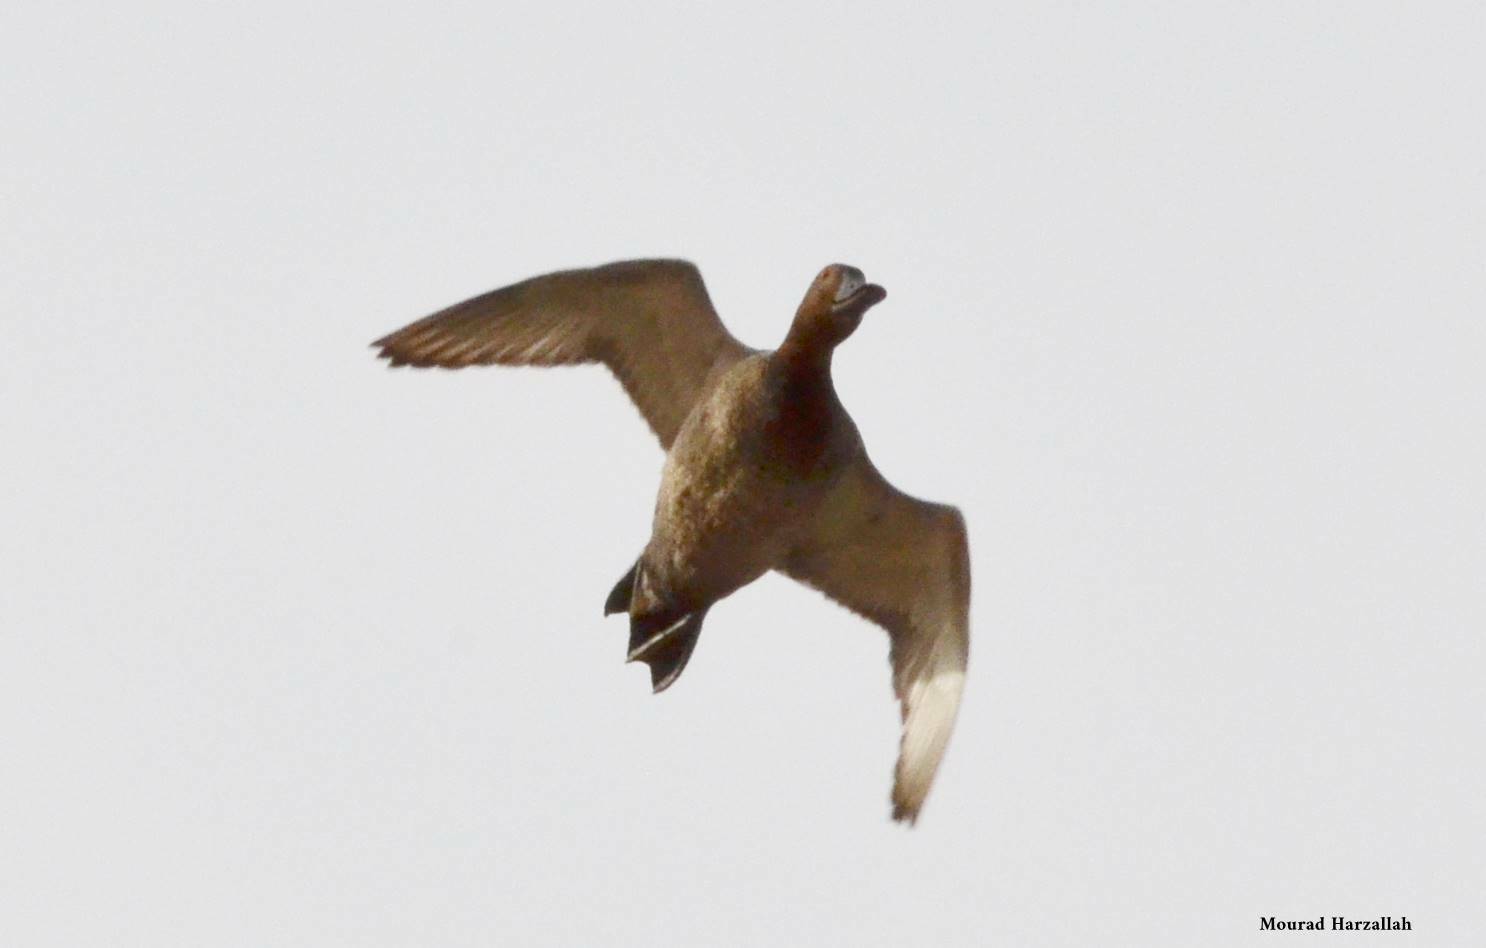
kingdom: Animalia
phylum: Chordata
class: Aves
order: Anseriformes
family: Anatidae
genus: Aythya
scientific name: Aythya ferina
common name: Common pochard
